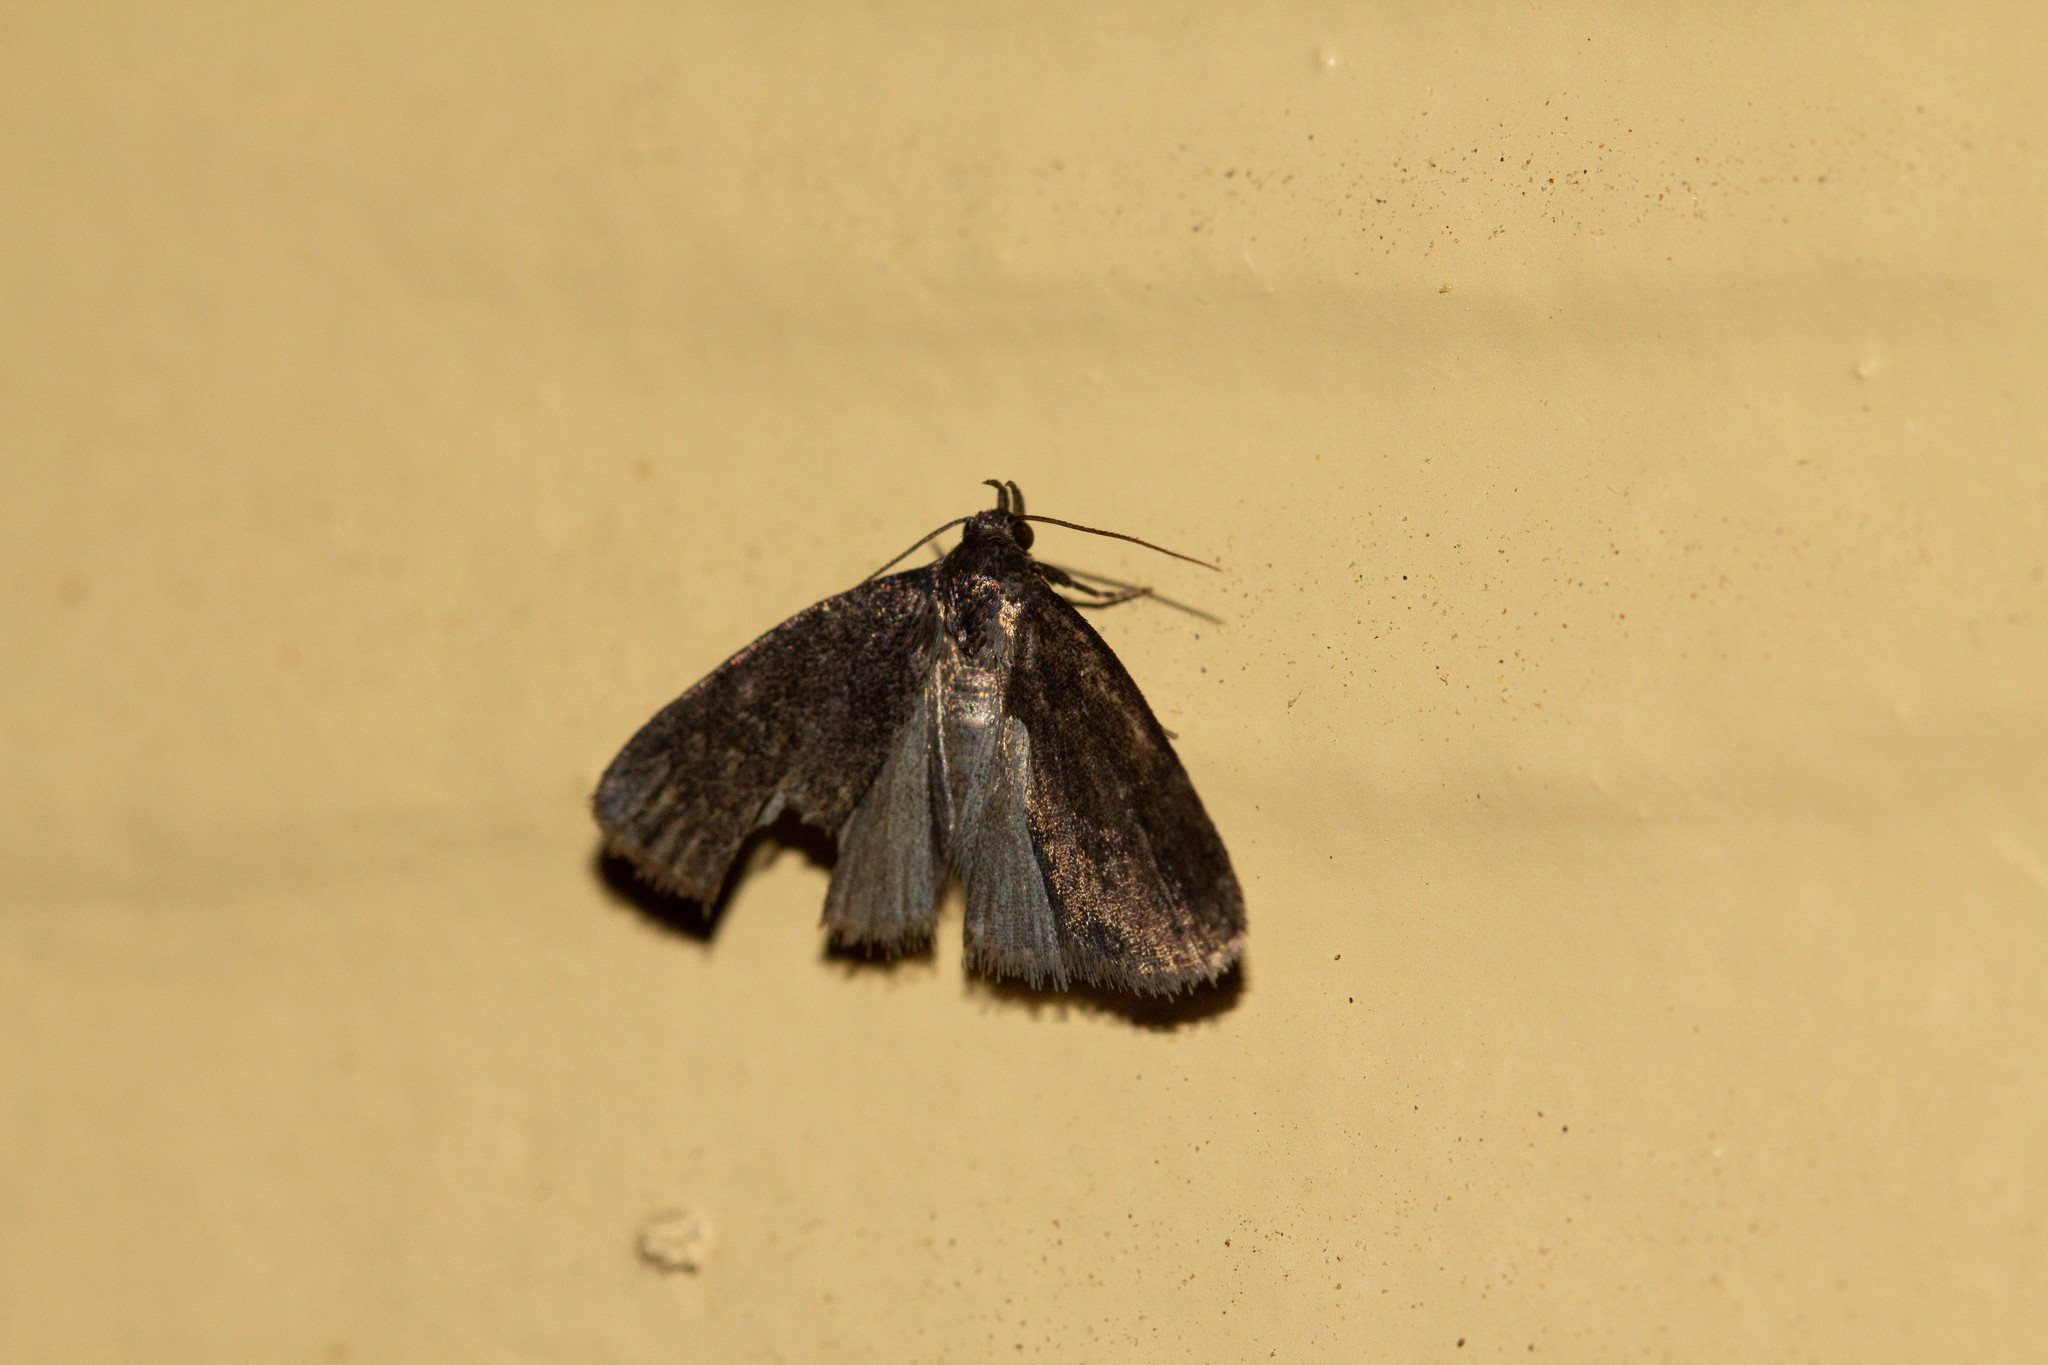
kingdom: Animalia
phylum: Arthropoda
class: Insecta
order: Lepidoptera
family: Erebidae
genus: Idia
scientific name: Idia rotundalis
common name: Rotund idia moth
